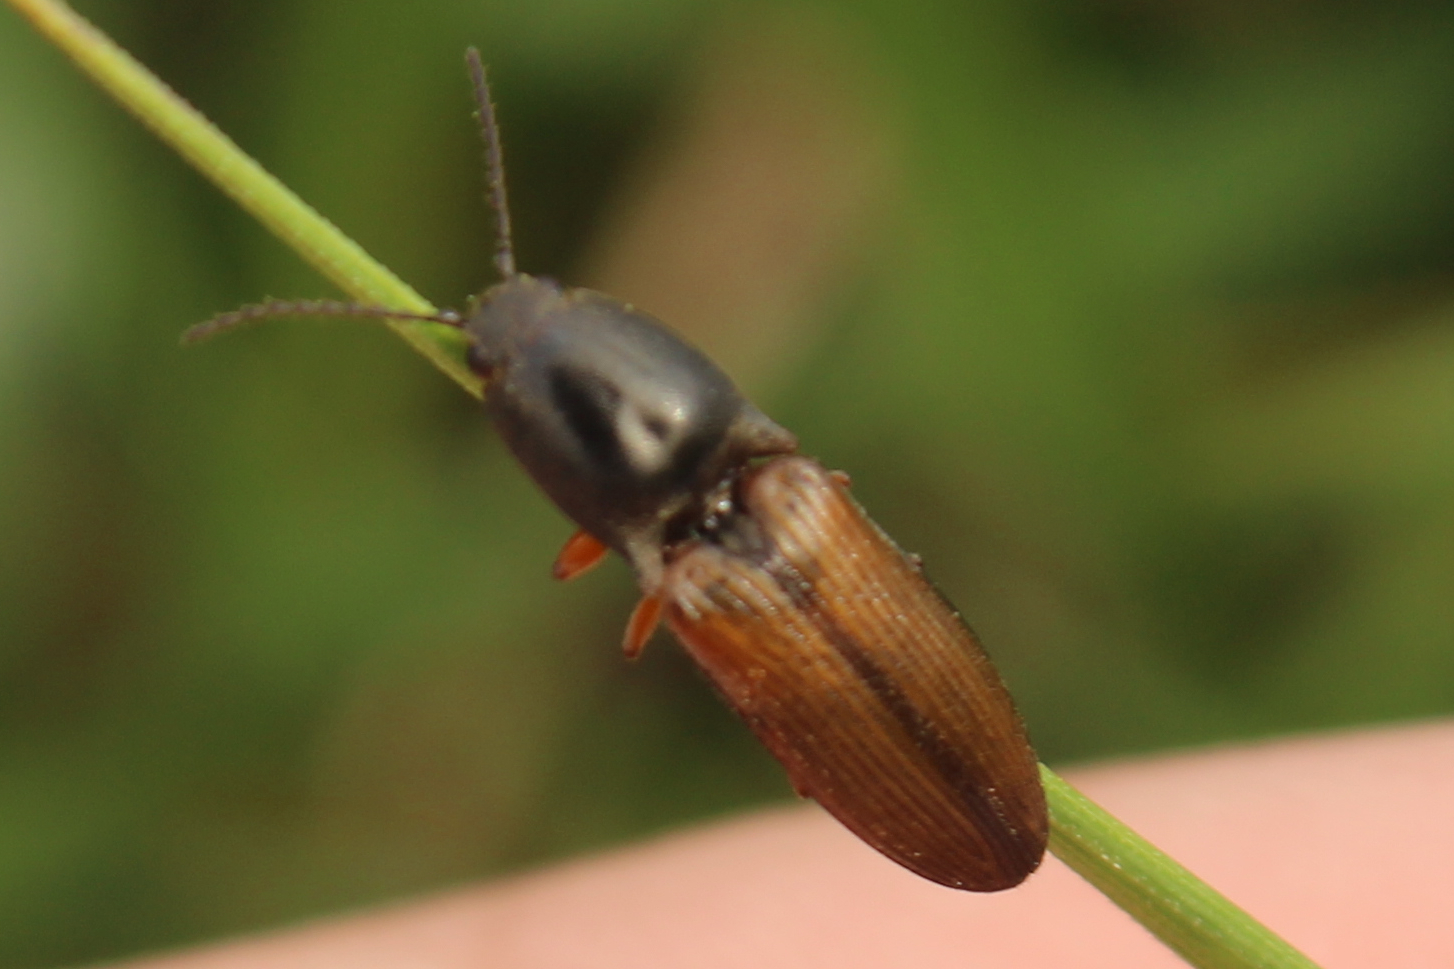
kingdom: Animalia
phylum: Arthropoda
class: Insecta
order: Coleoptera
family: Elateridae
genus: Corymbitodes
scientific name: Corymbitodes tarsalis
